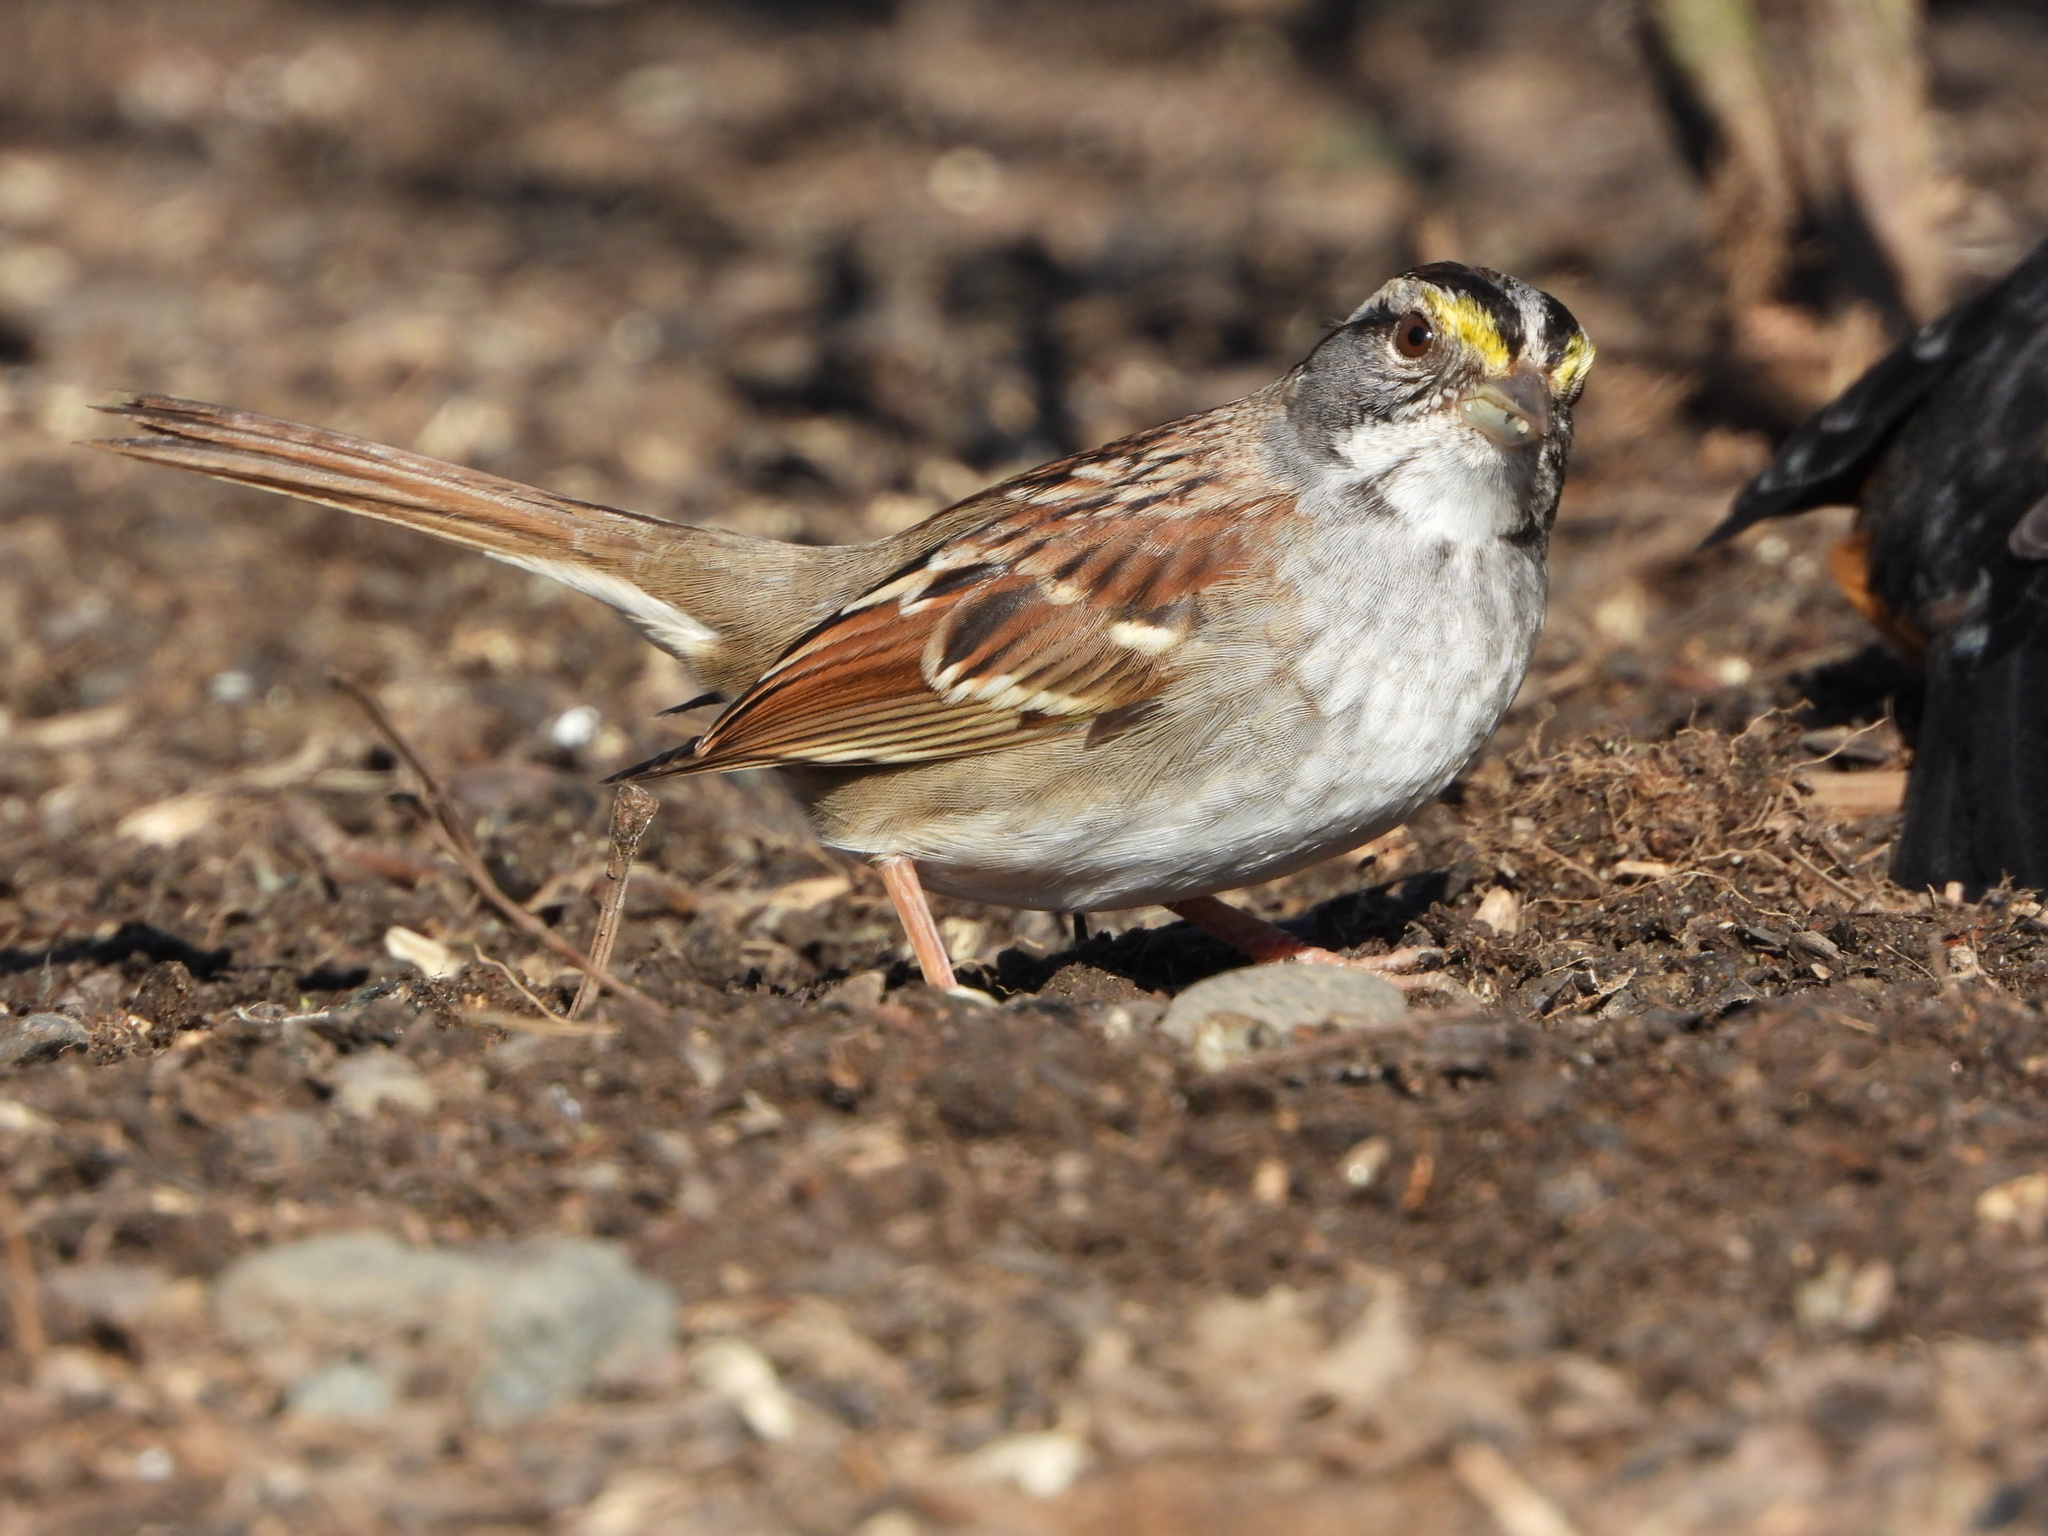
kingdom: Animalia
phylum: Chordata
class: Aves
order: Passeriformes
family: Passerellidae
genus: Zonotrichia
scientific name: Zonotrichia albicollis
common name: White-throated sparrow
